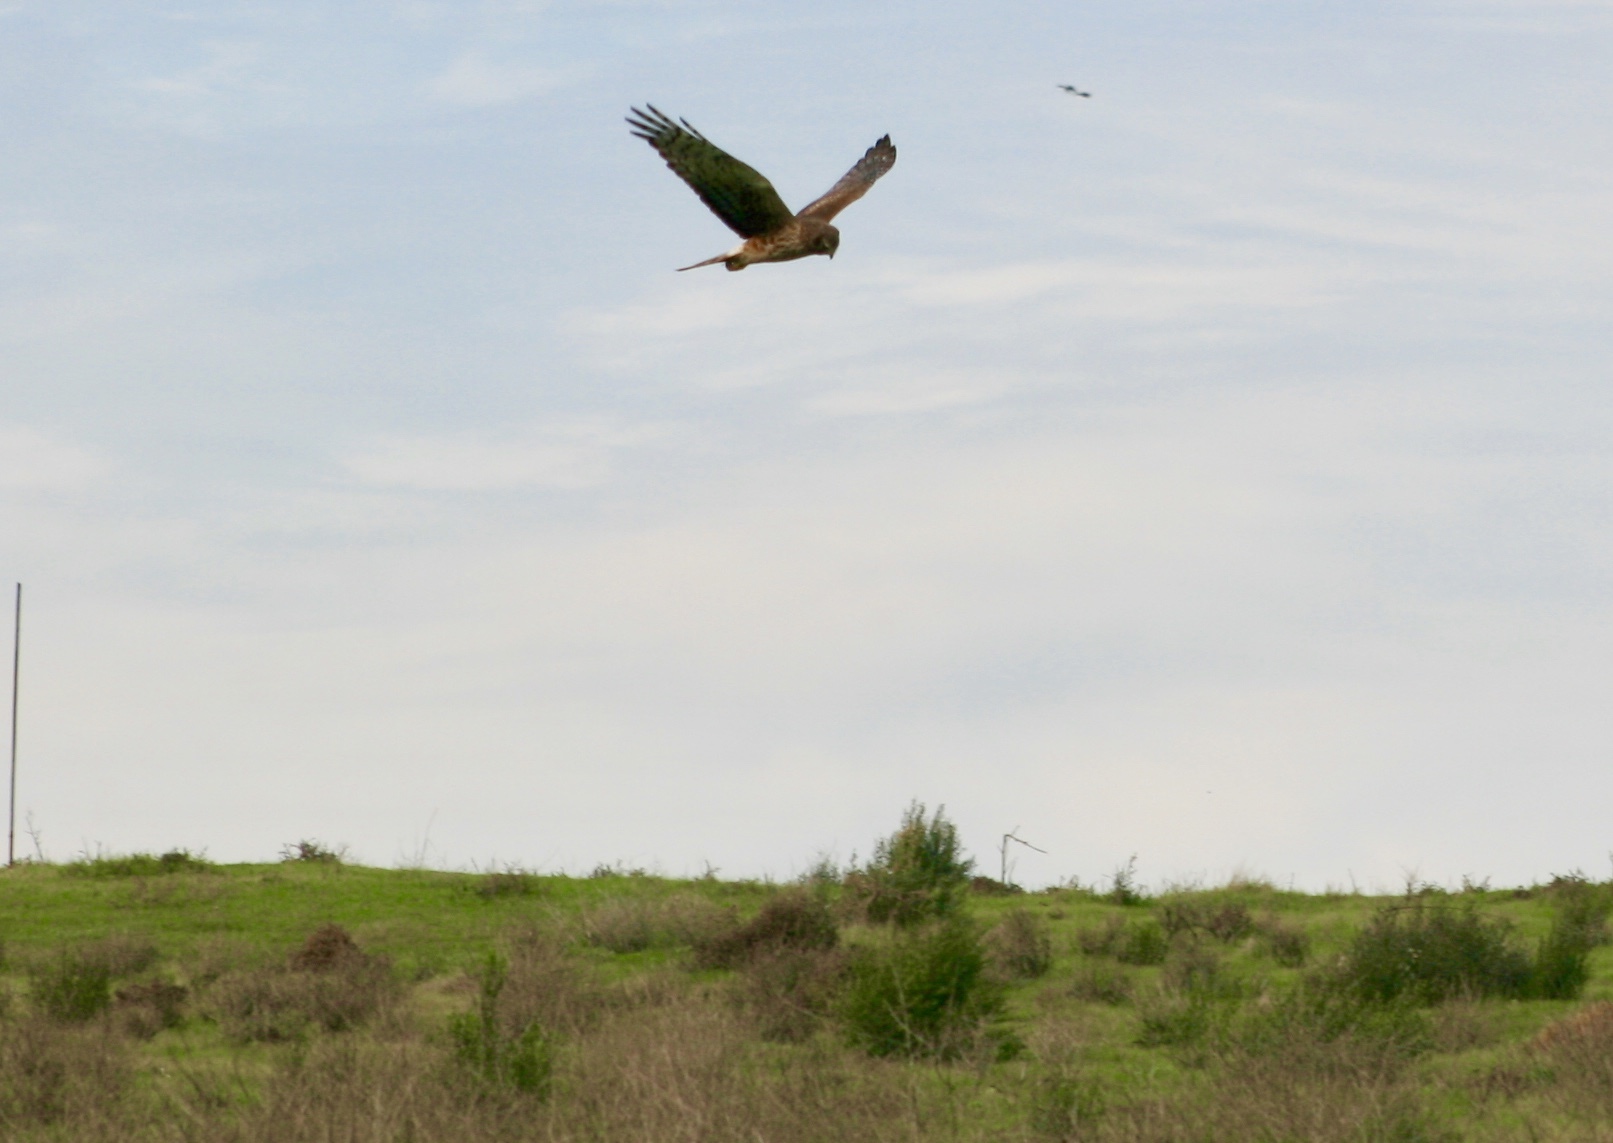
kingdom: Animalia
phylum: Chordata
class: Aves
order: Accipitriformes
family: Accipitridae
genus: Circus
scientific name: Circus cyaneus
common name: Hen harrier
